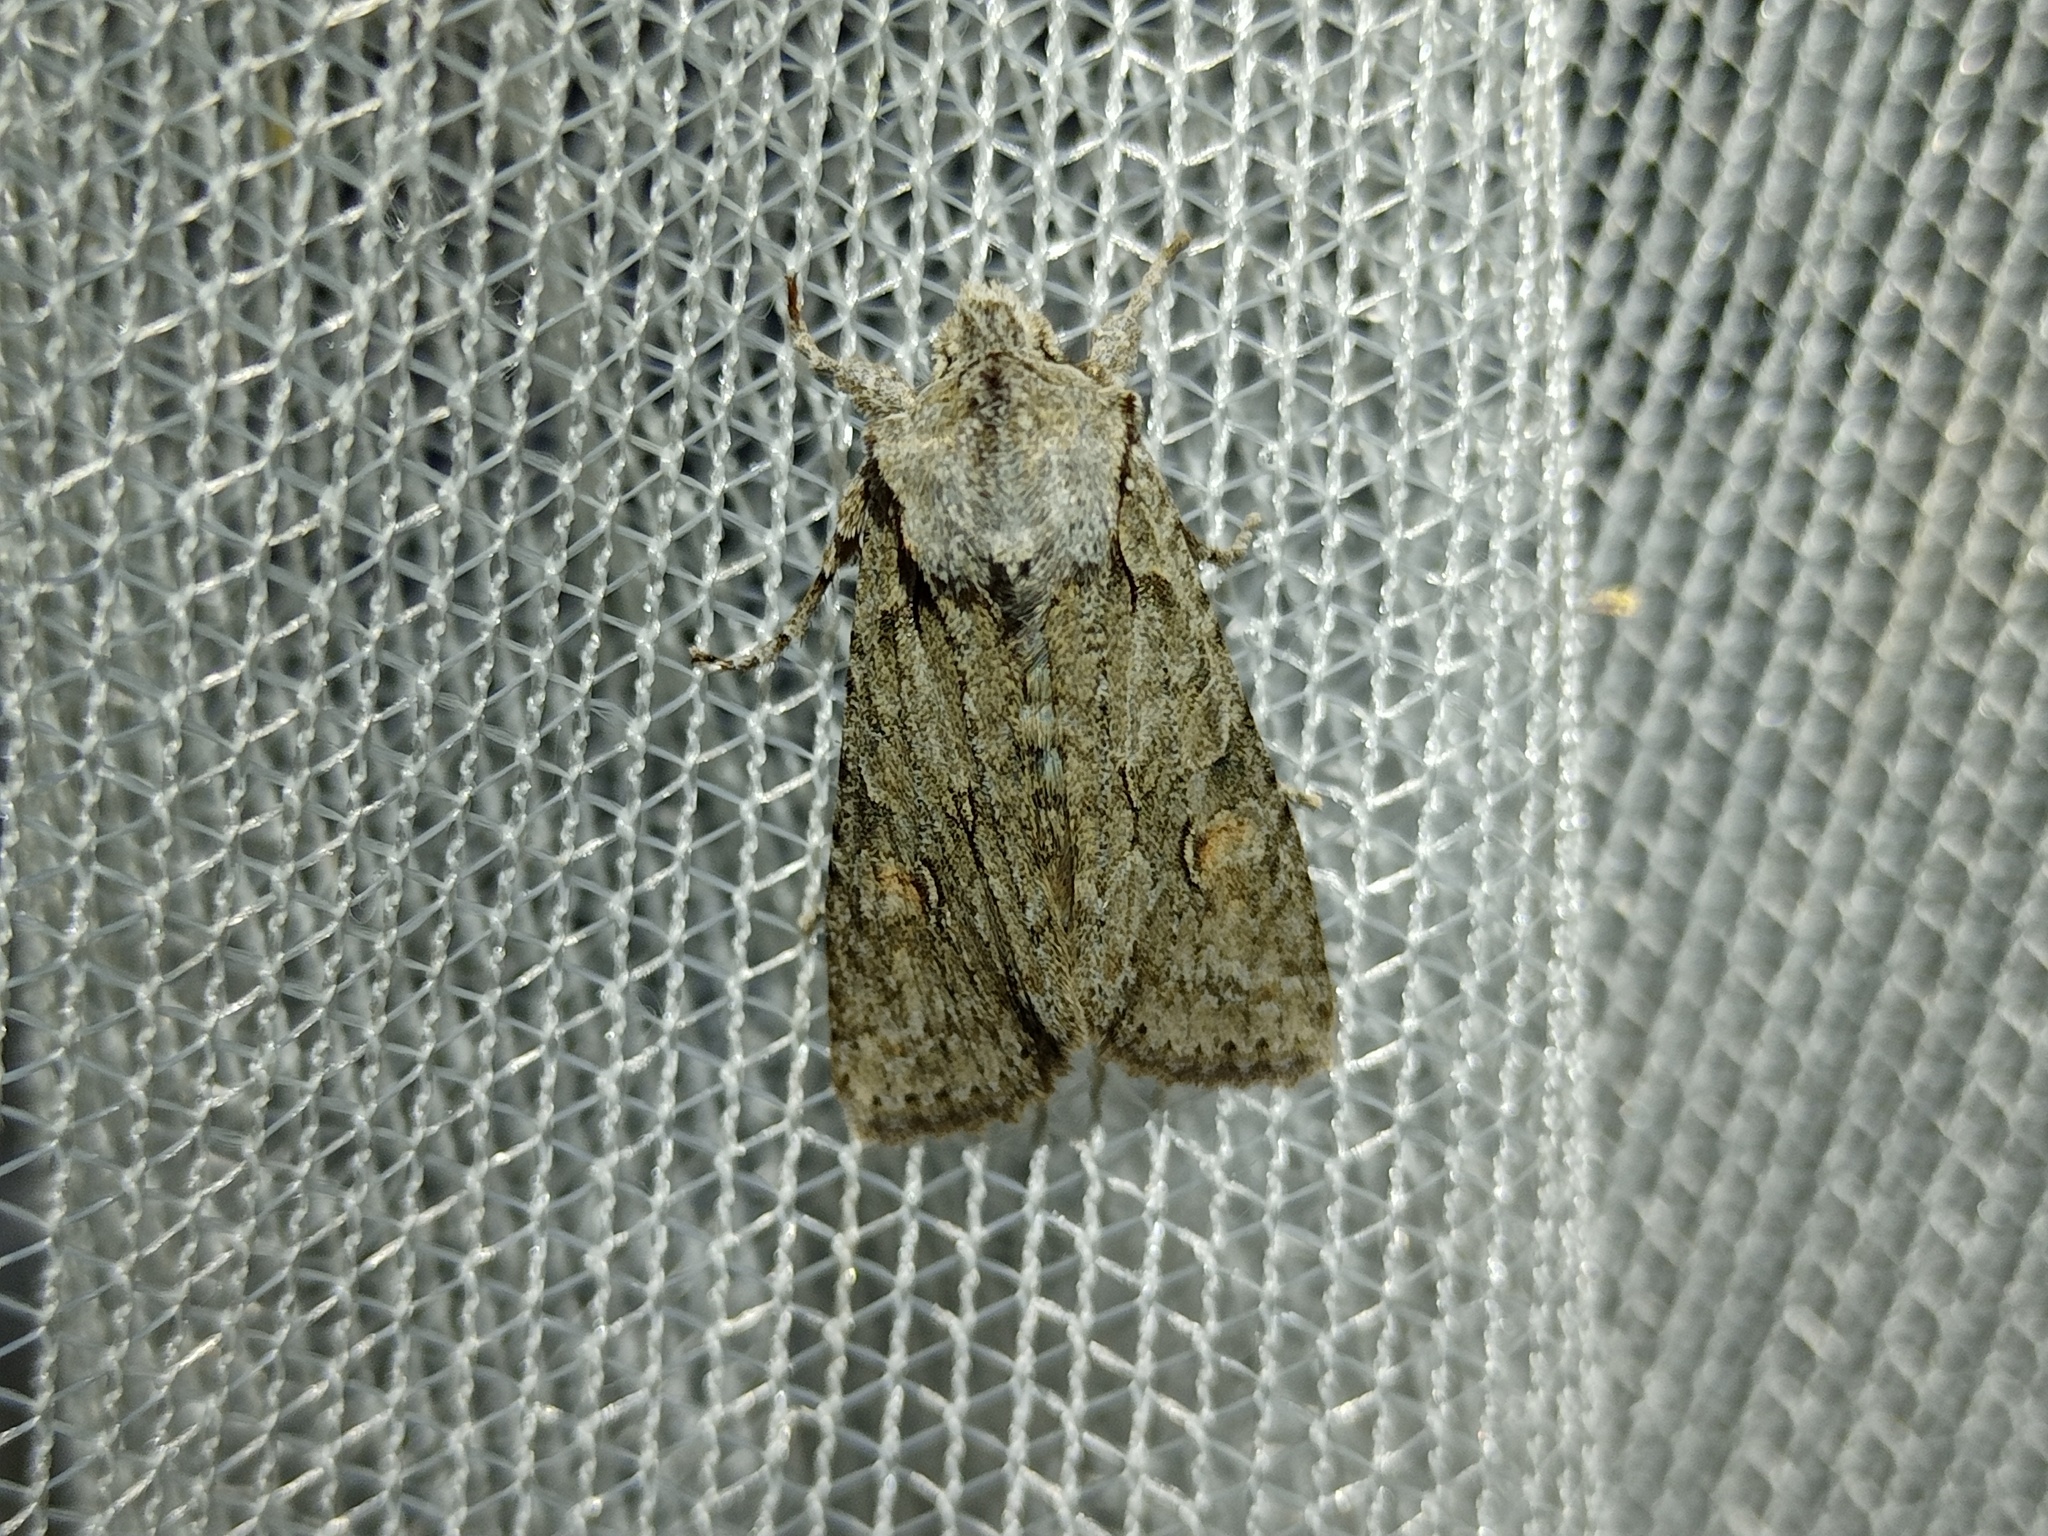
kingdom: Animalia
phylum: Arthropoda
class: Insecta
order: Lepidoptera
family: Noctuidae
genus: Lithophane
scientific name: Lithophane ornitopus
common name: Grey shoulder-knot
